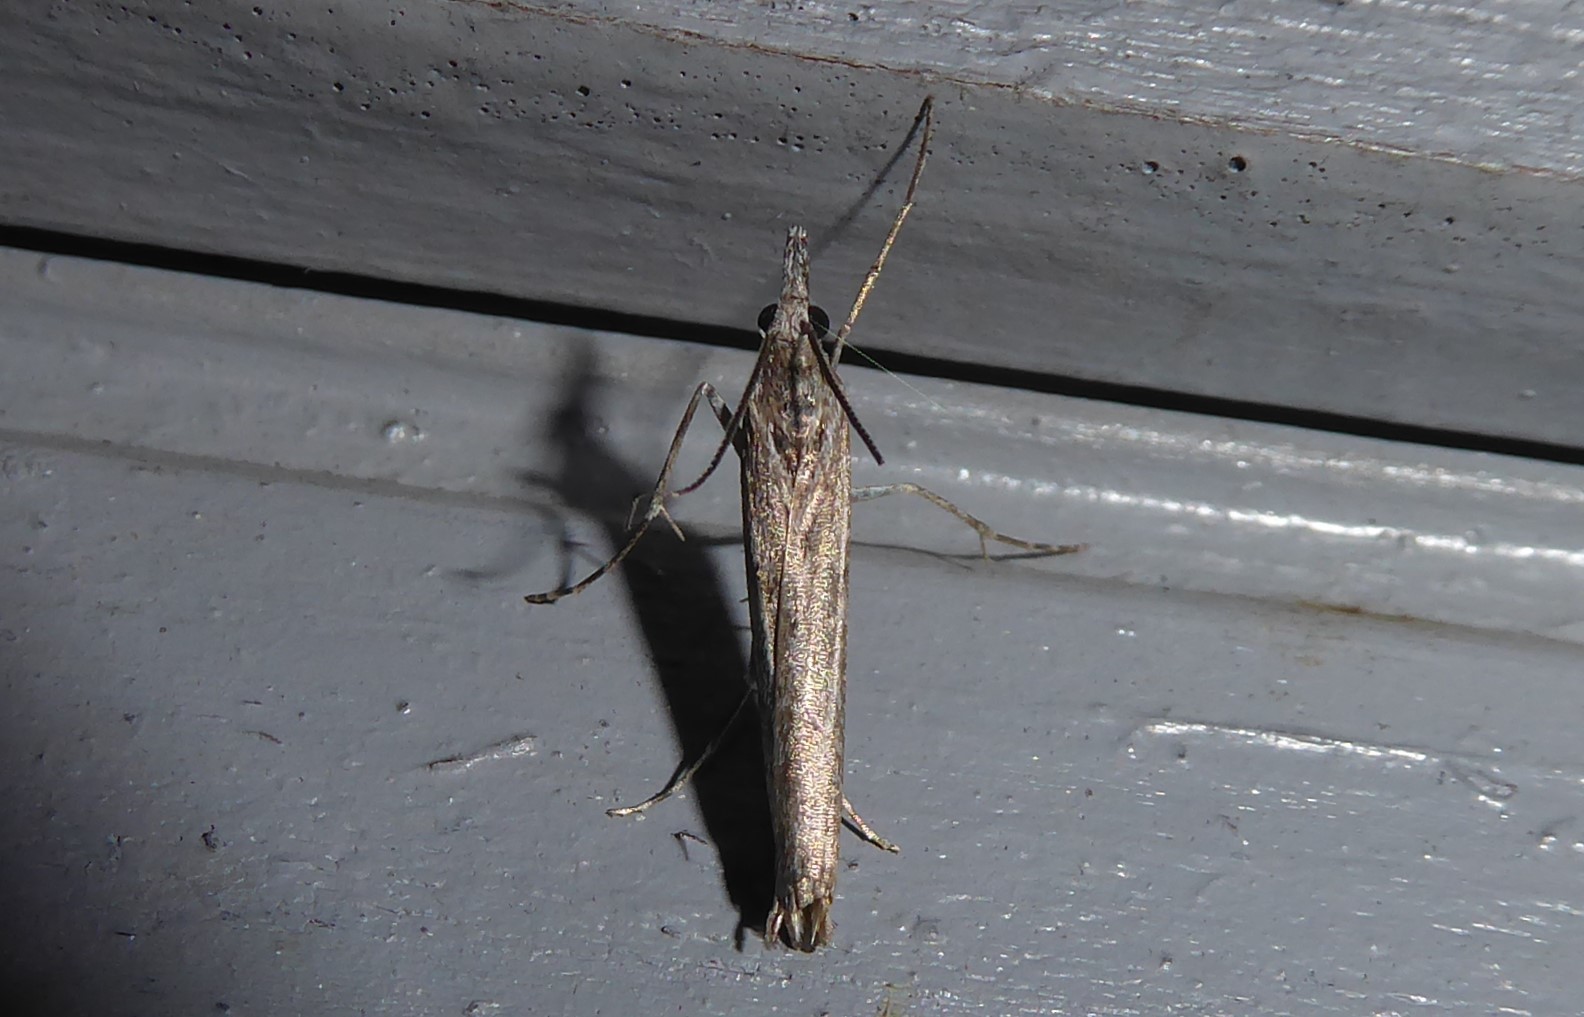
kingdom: Animalia
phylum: Arthropoda
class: Insecta
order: Lepidoptera
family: Crambidae
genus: Orocrambus
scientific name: Orocrambus cyclopicus
